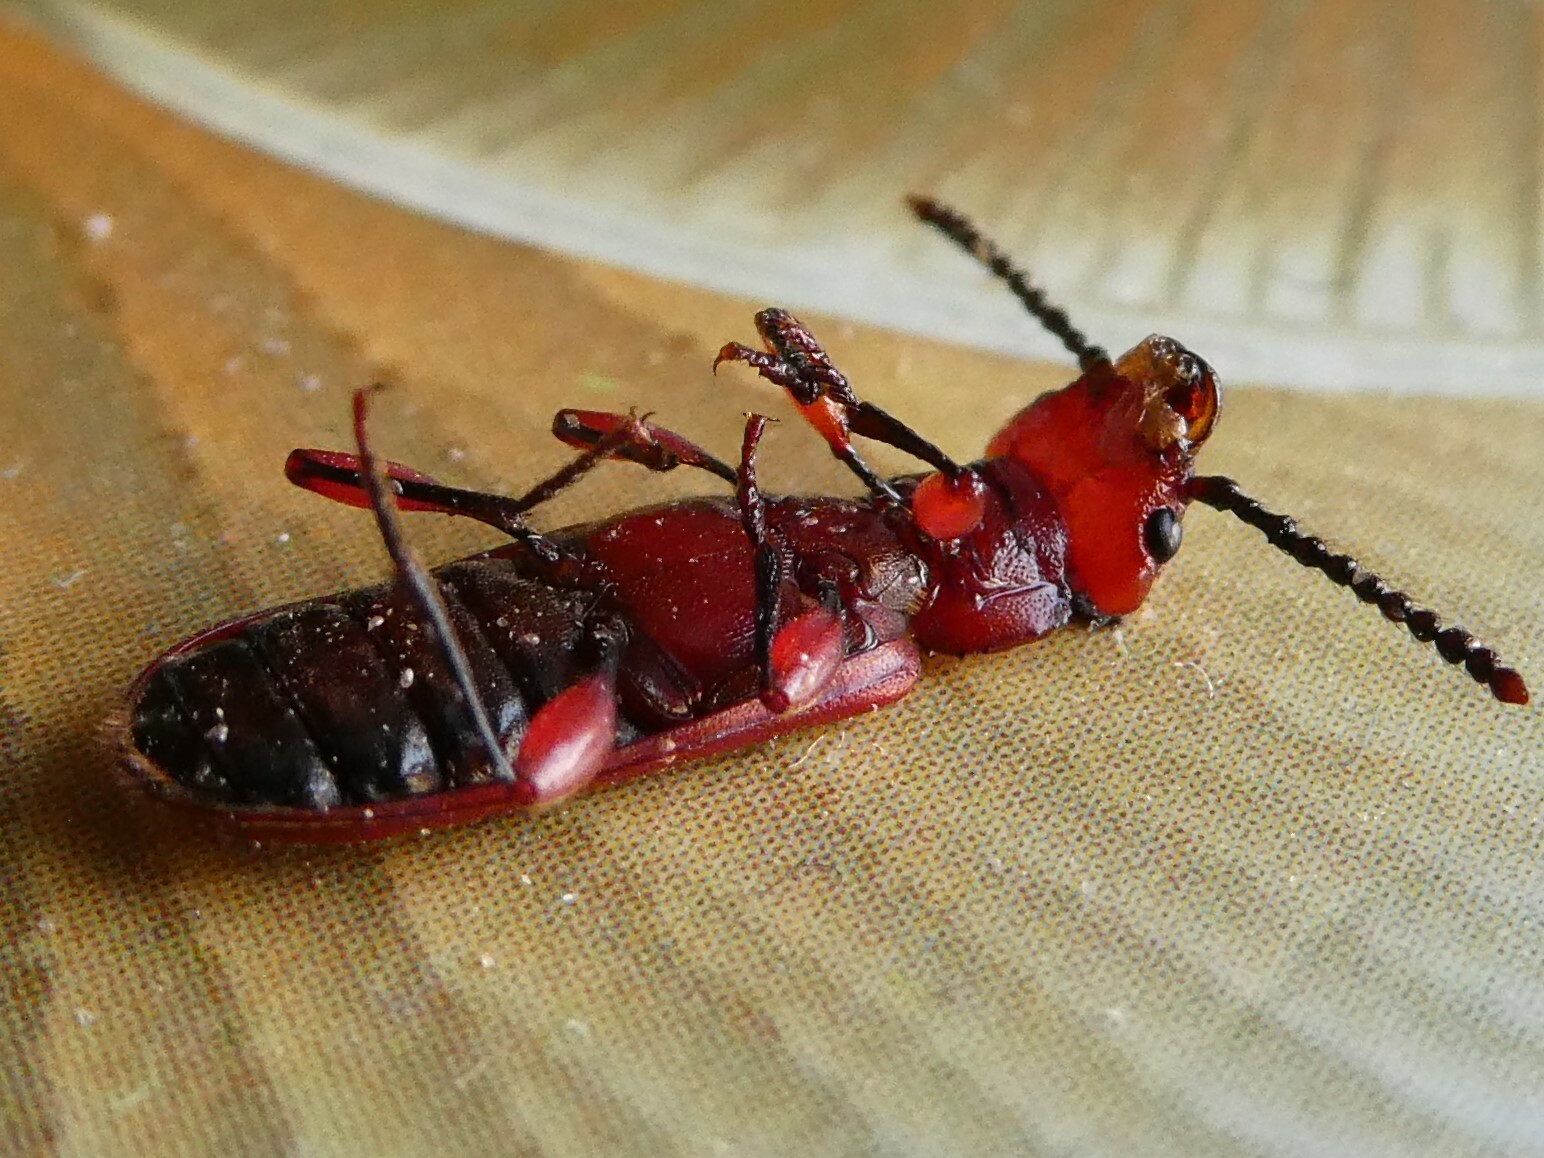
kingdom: Animalia
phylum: Arthropoda
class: Insecta
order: Coleoptera
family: Cucujidae
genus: Cucujus
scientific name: Cucujus clavipes
